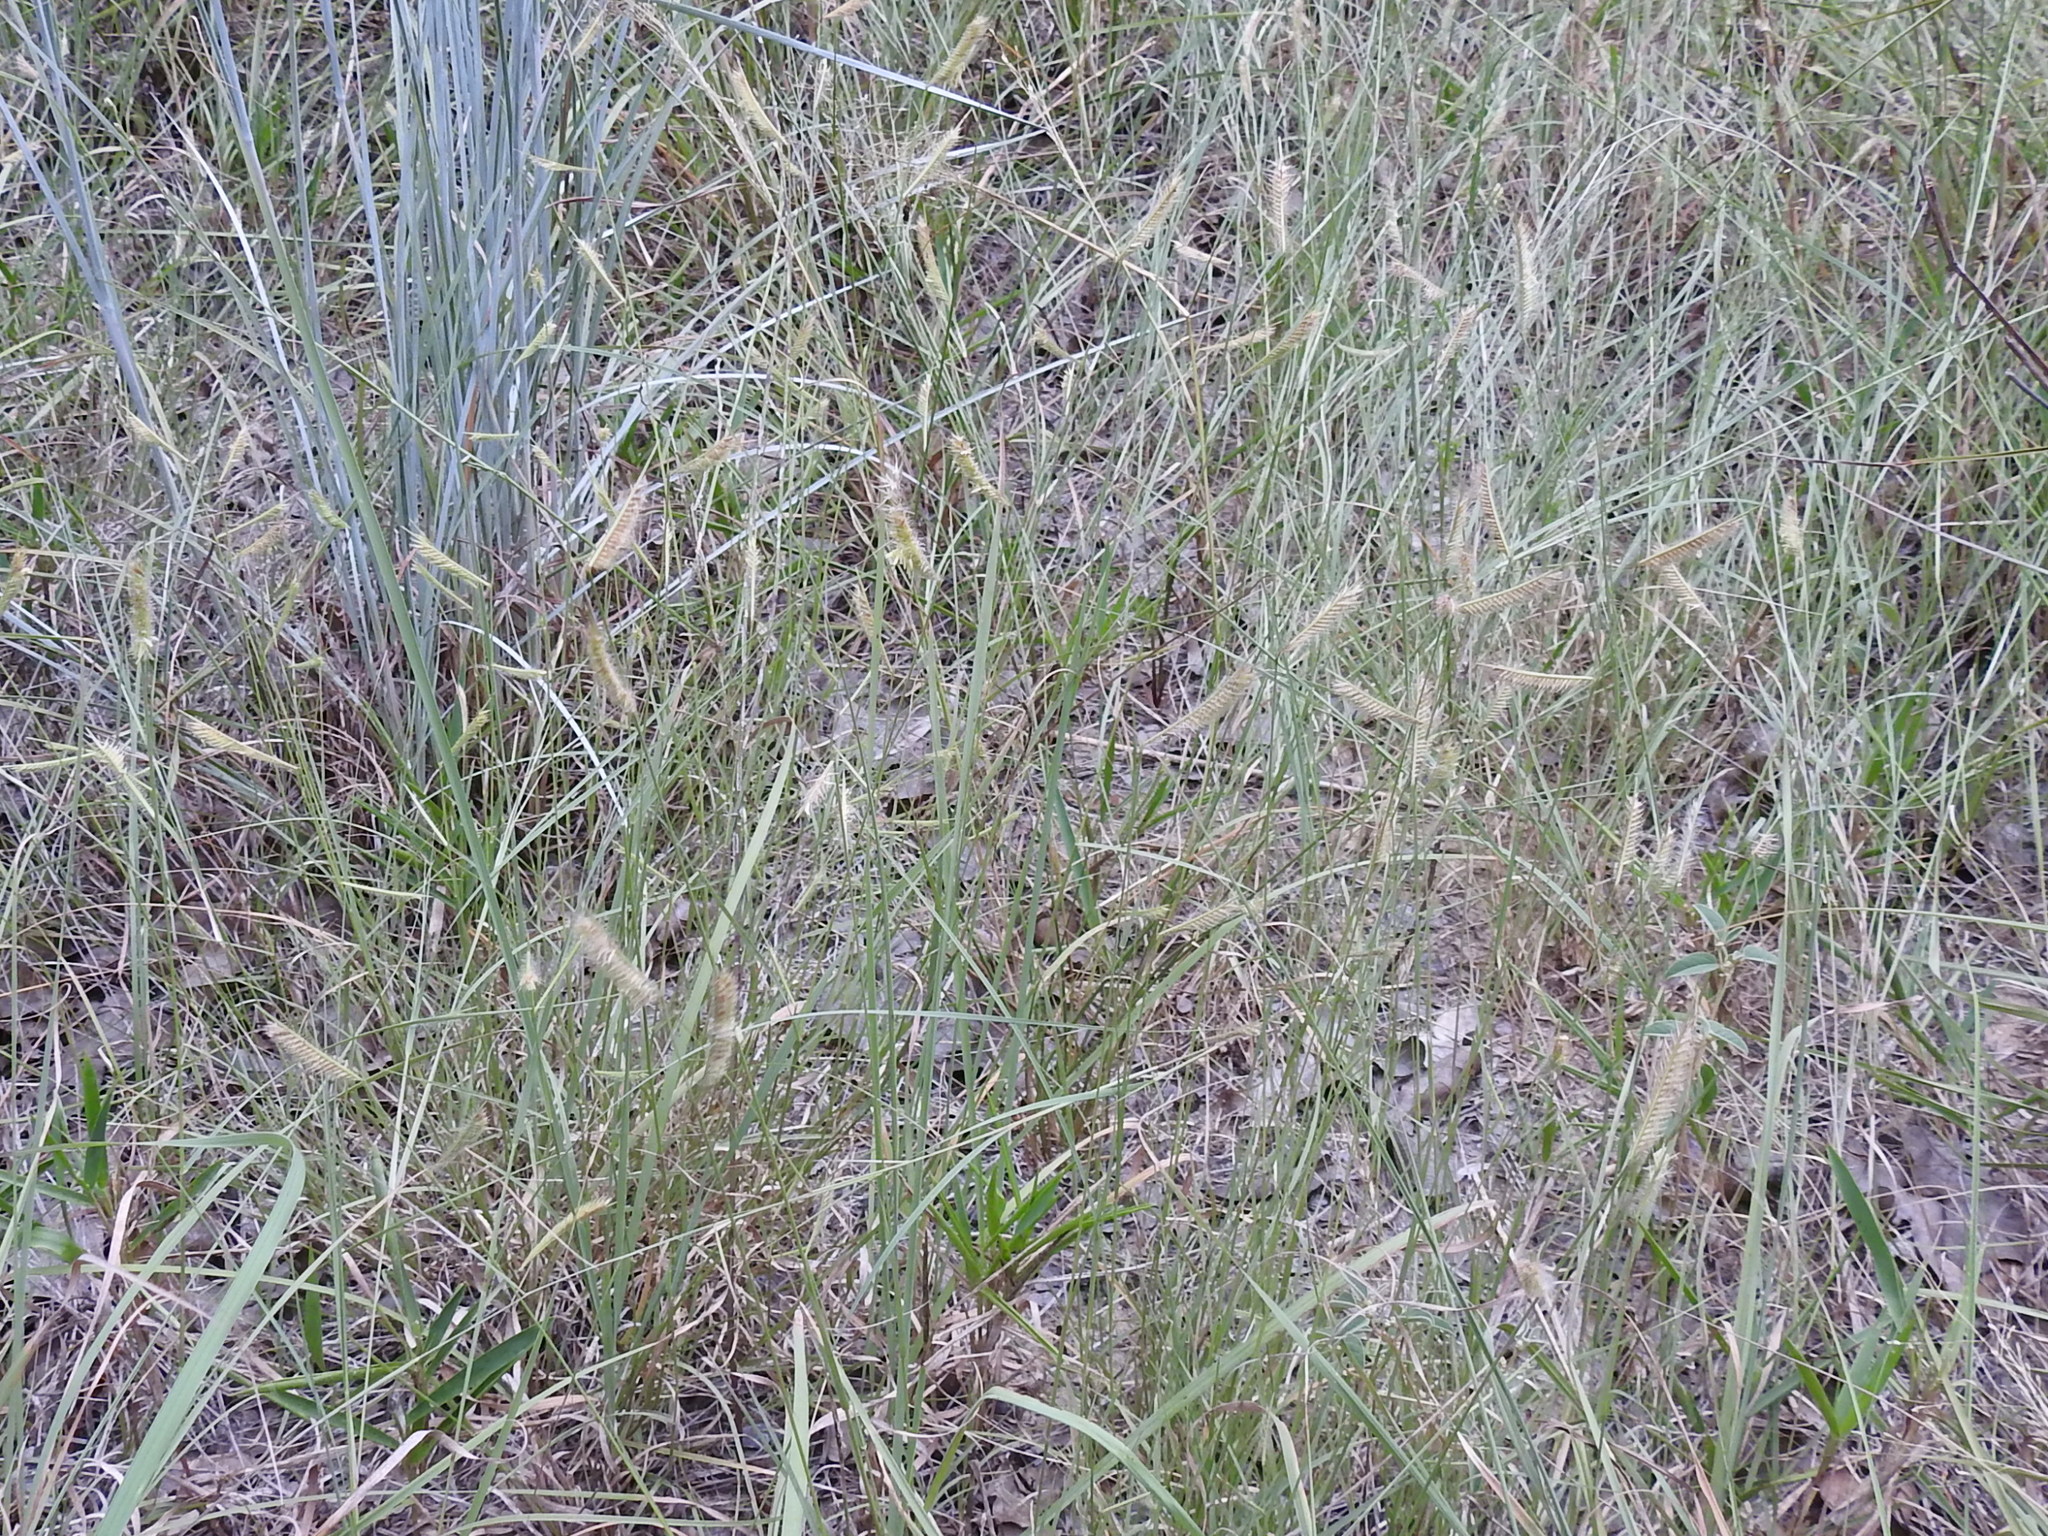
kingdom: Plantae
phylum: Tracheophyta
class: Liliopsida
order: Poales
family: Poaceae
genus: Bouteloua
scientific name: Bouteloua hirsuta
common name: Hairy grama
